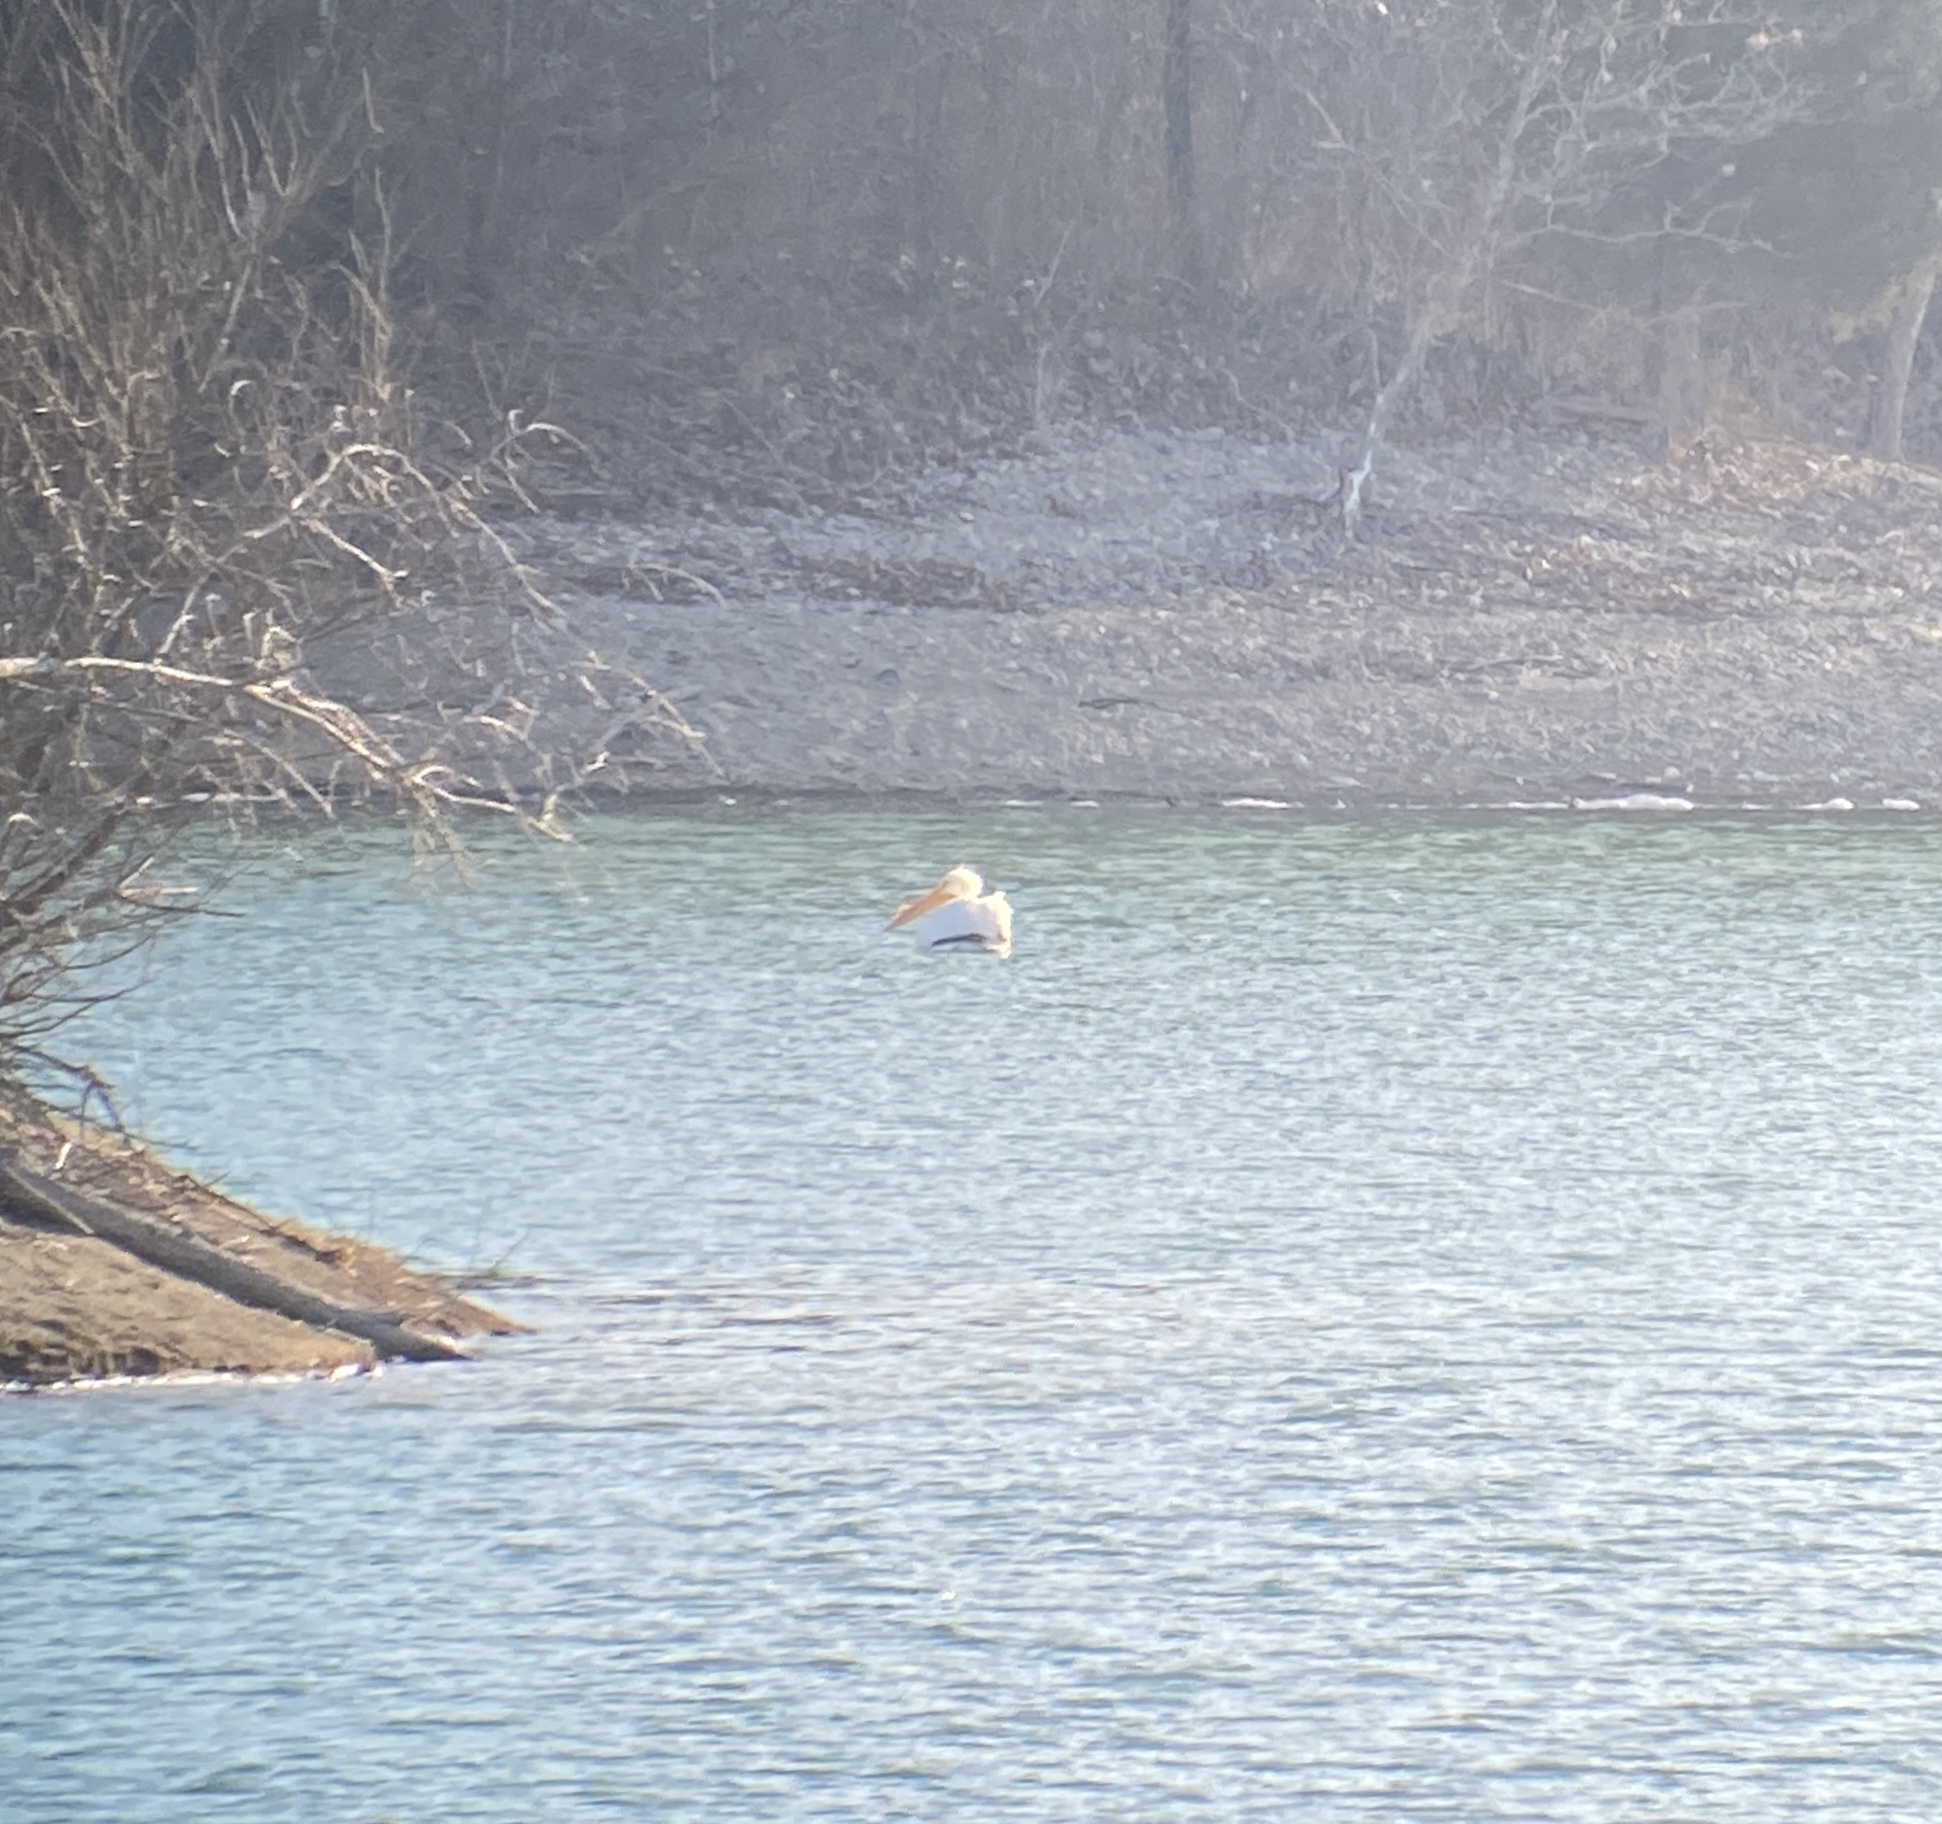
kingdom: Animalia
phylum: Chordata
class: Aves
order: Pelecaniformes
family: Pelecanidae
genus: Pelecanus
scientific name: Pelecanus erythrorhynchos
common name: American white pelican
